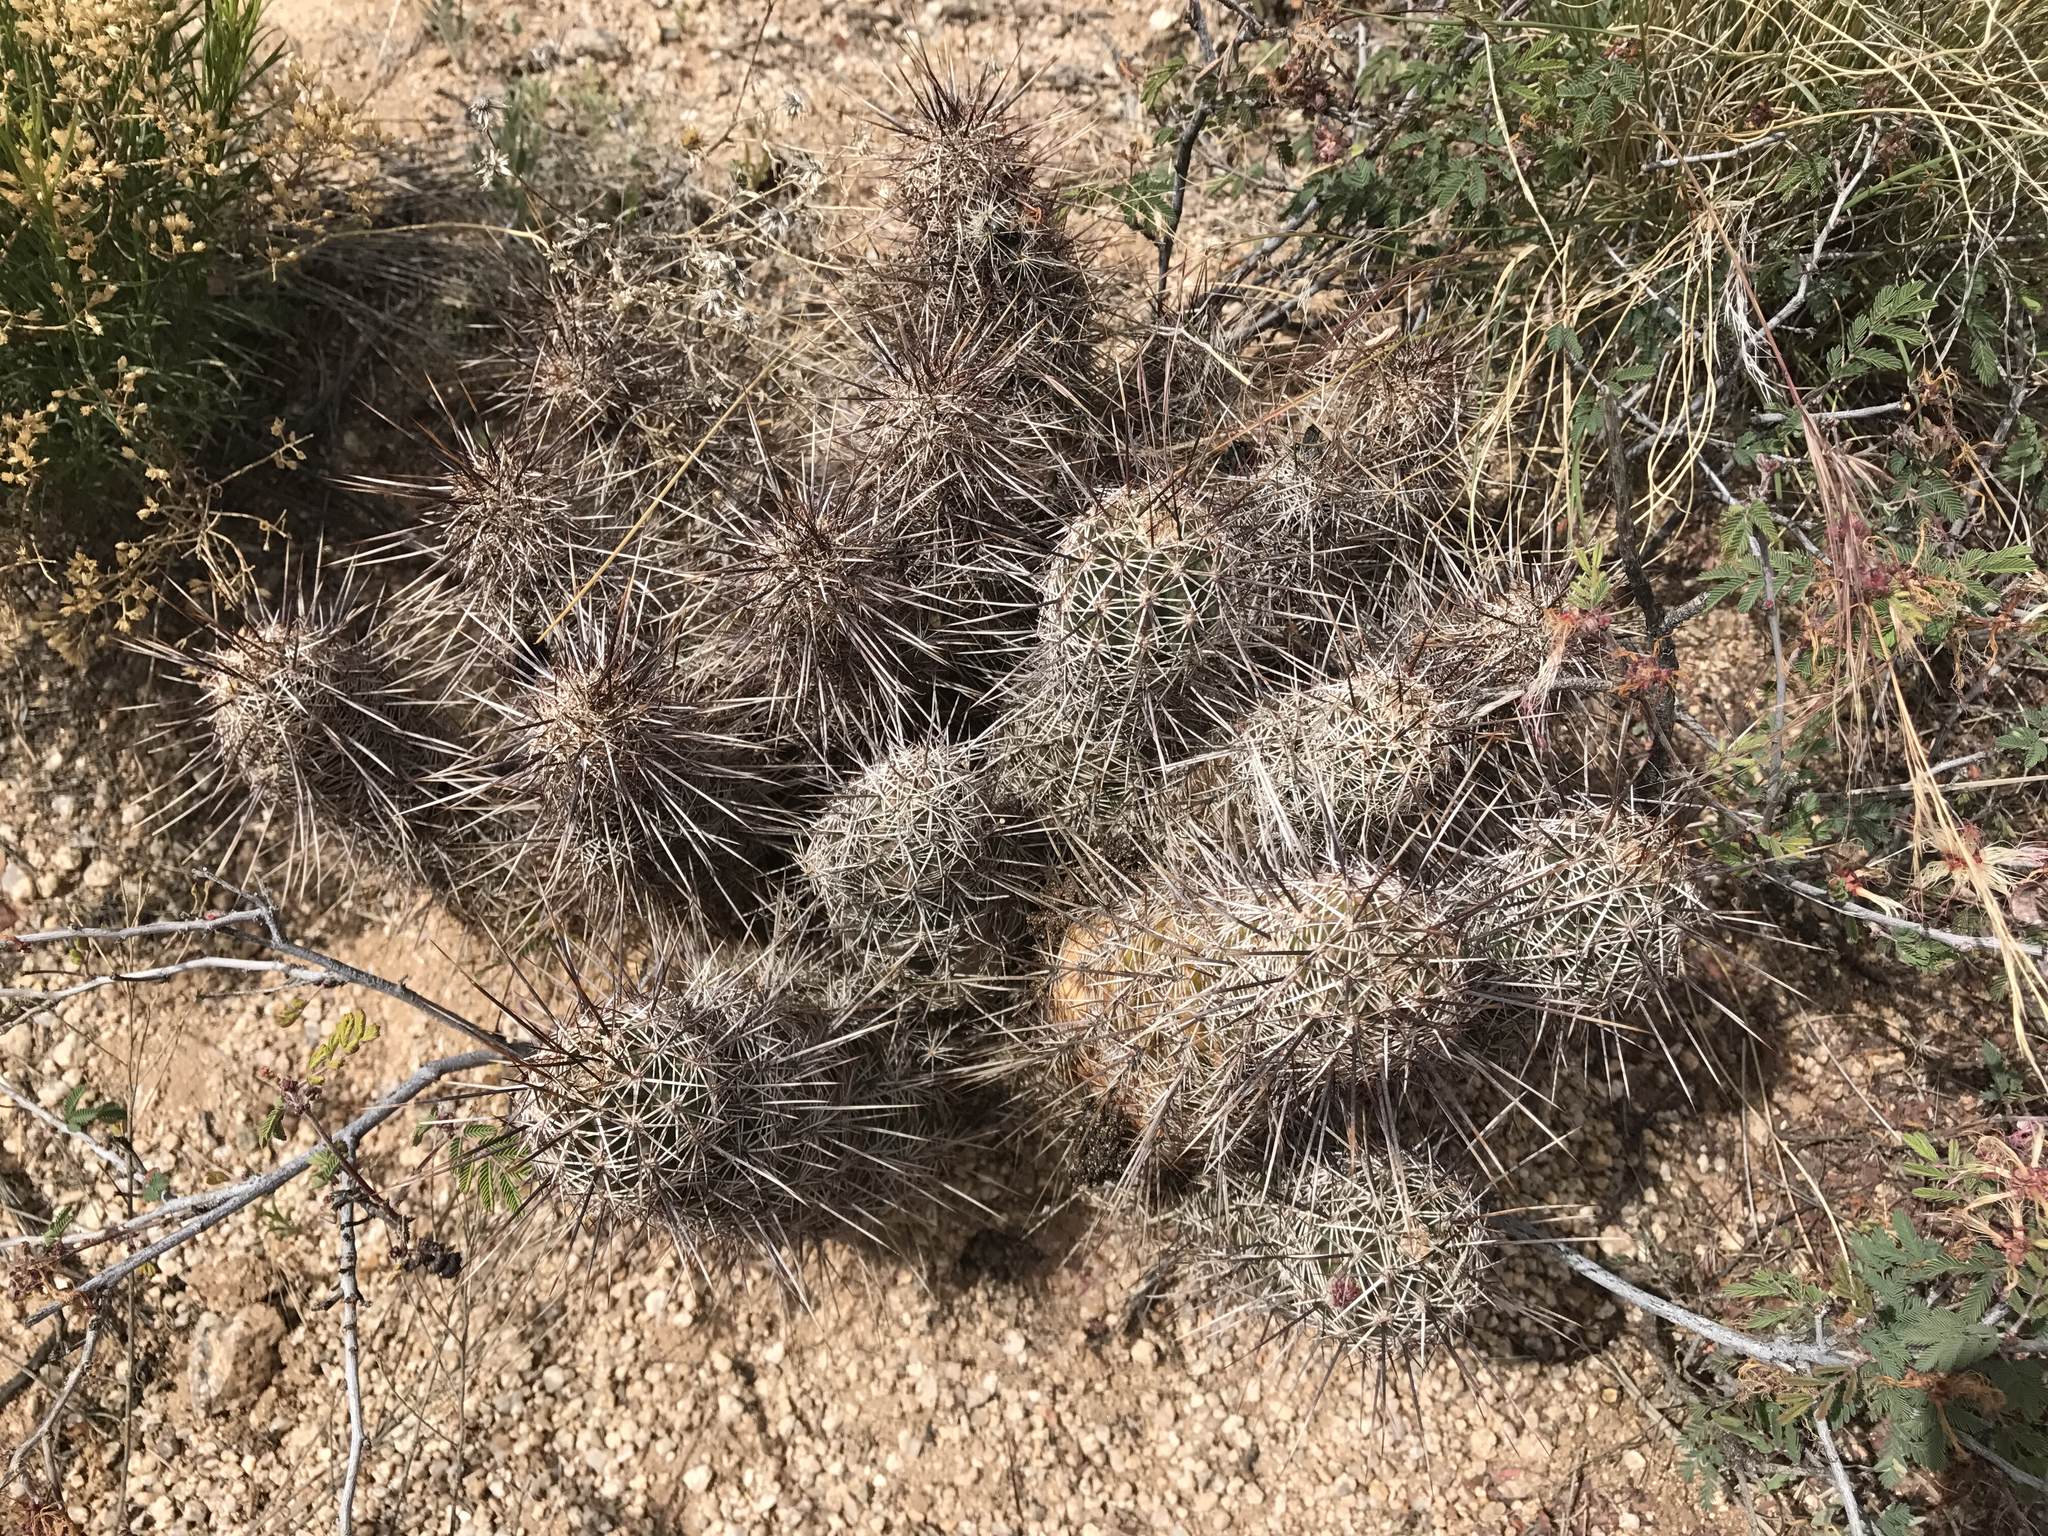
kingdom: Plantae
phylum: Tracheophyta
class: Magnoliopsida
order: Caryophyllales
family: Cactaceae
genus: Echinocereus
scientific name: Echinocereus fasciculatus
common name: Bundle hedgehog
